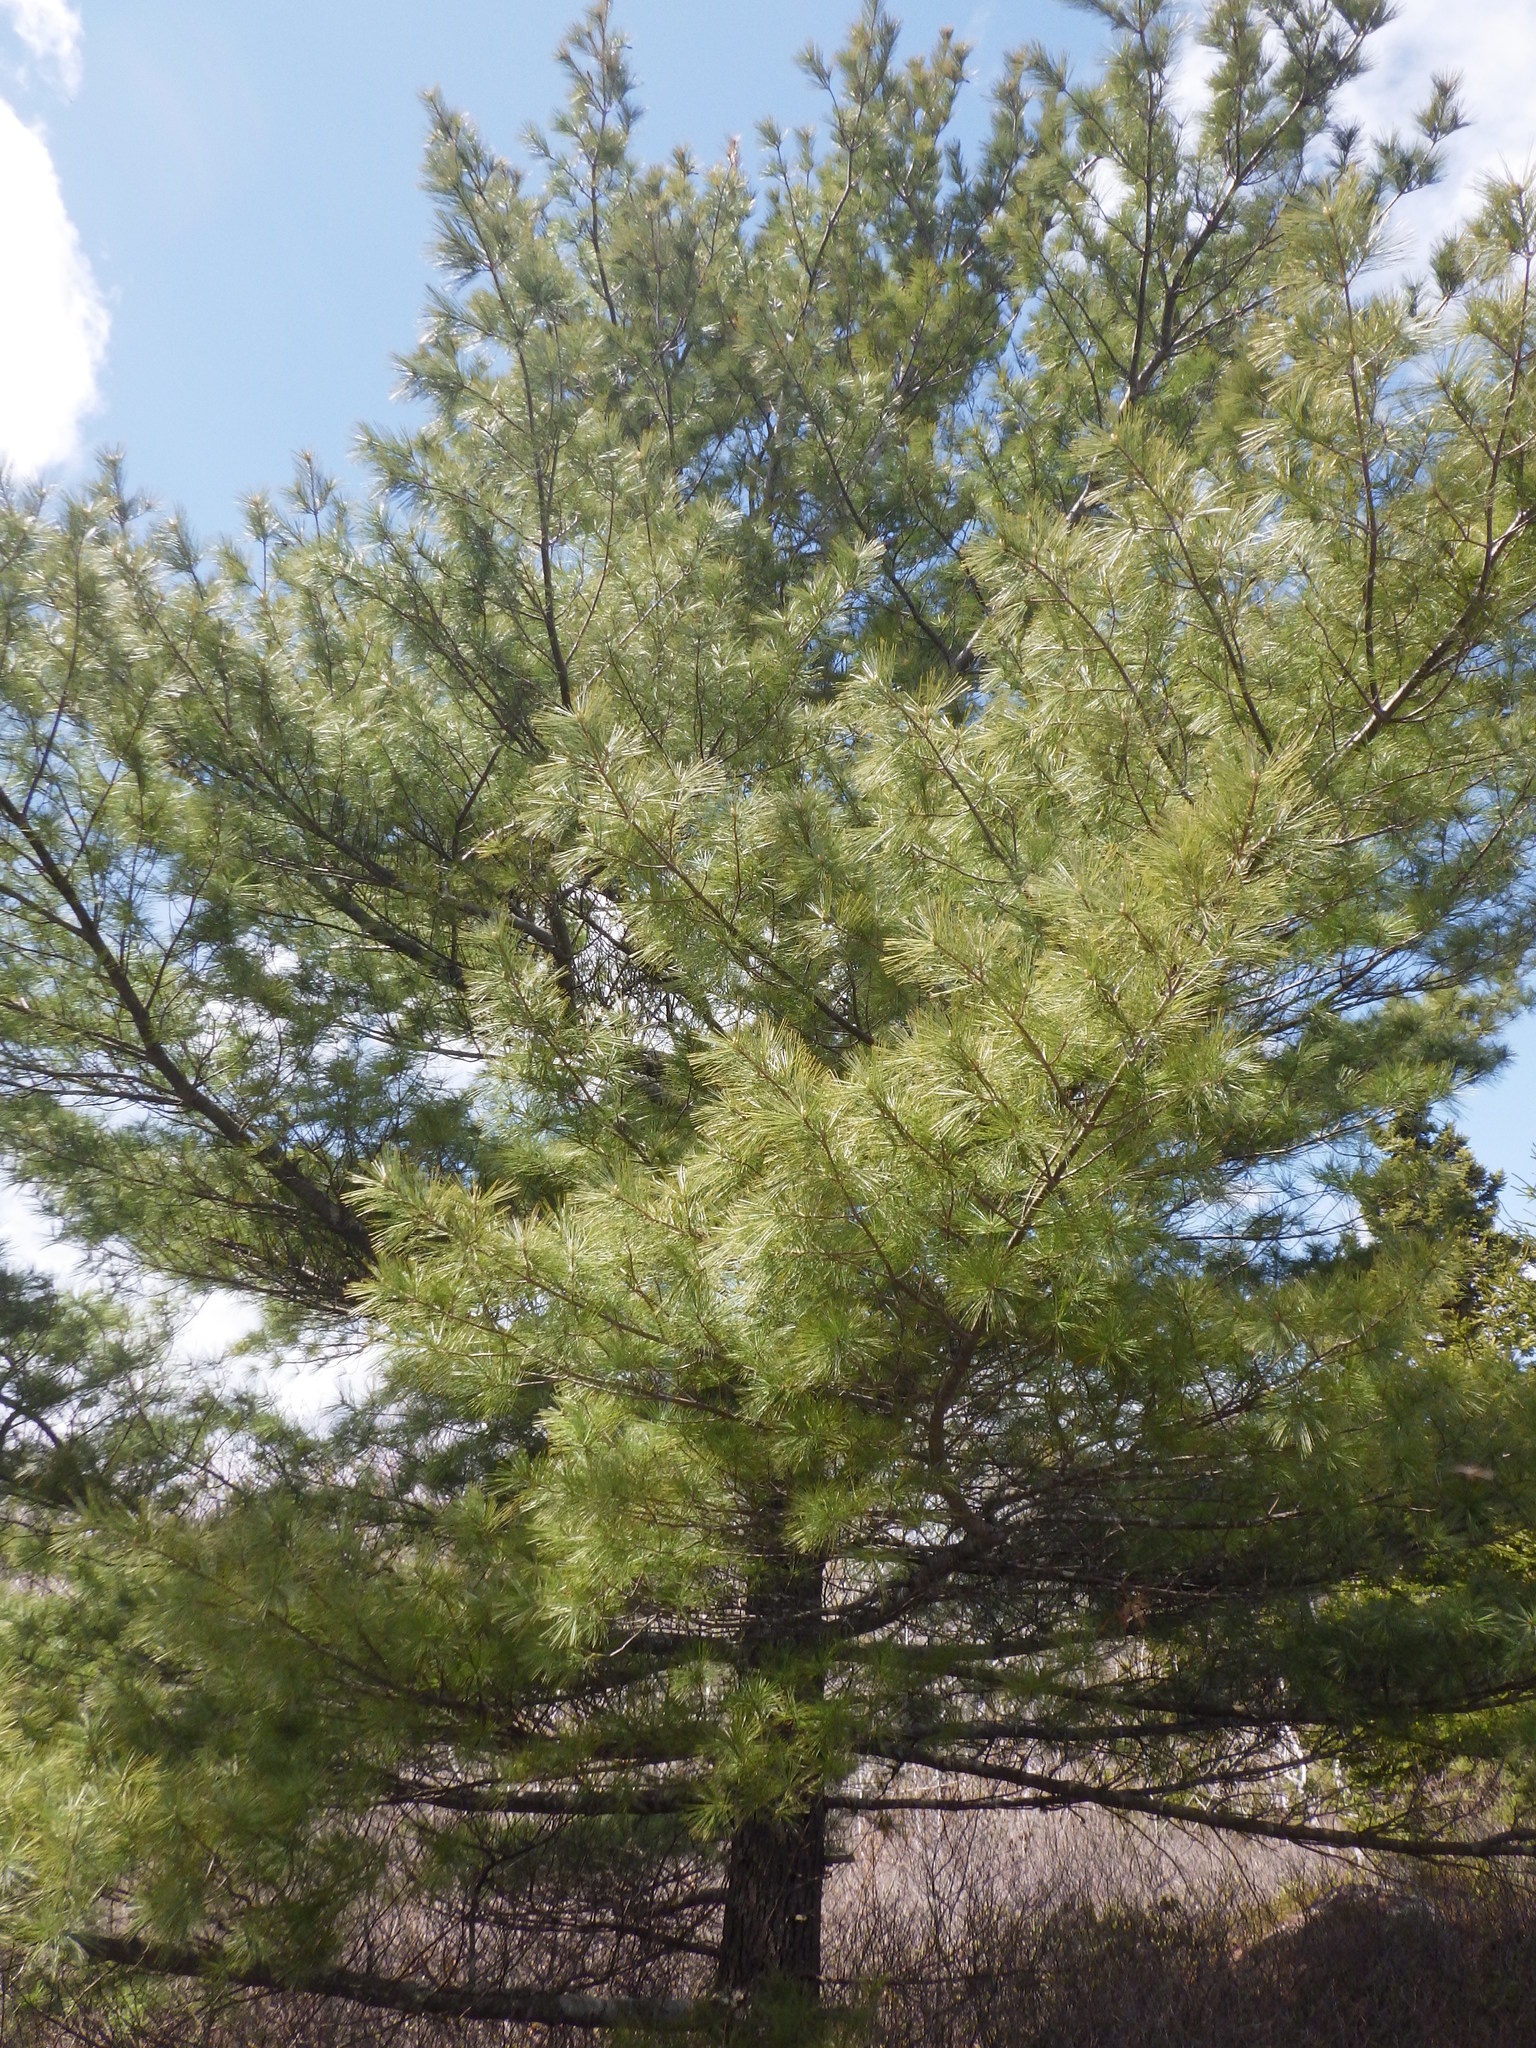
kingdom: Plantae
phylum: Tracheophyta
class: Pinopsida
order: Pinales
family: Pinaceae
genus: Pinus
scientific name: Pinus strobus
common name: Weymouth pine
